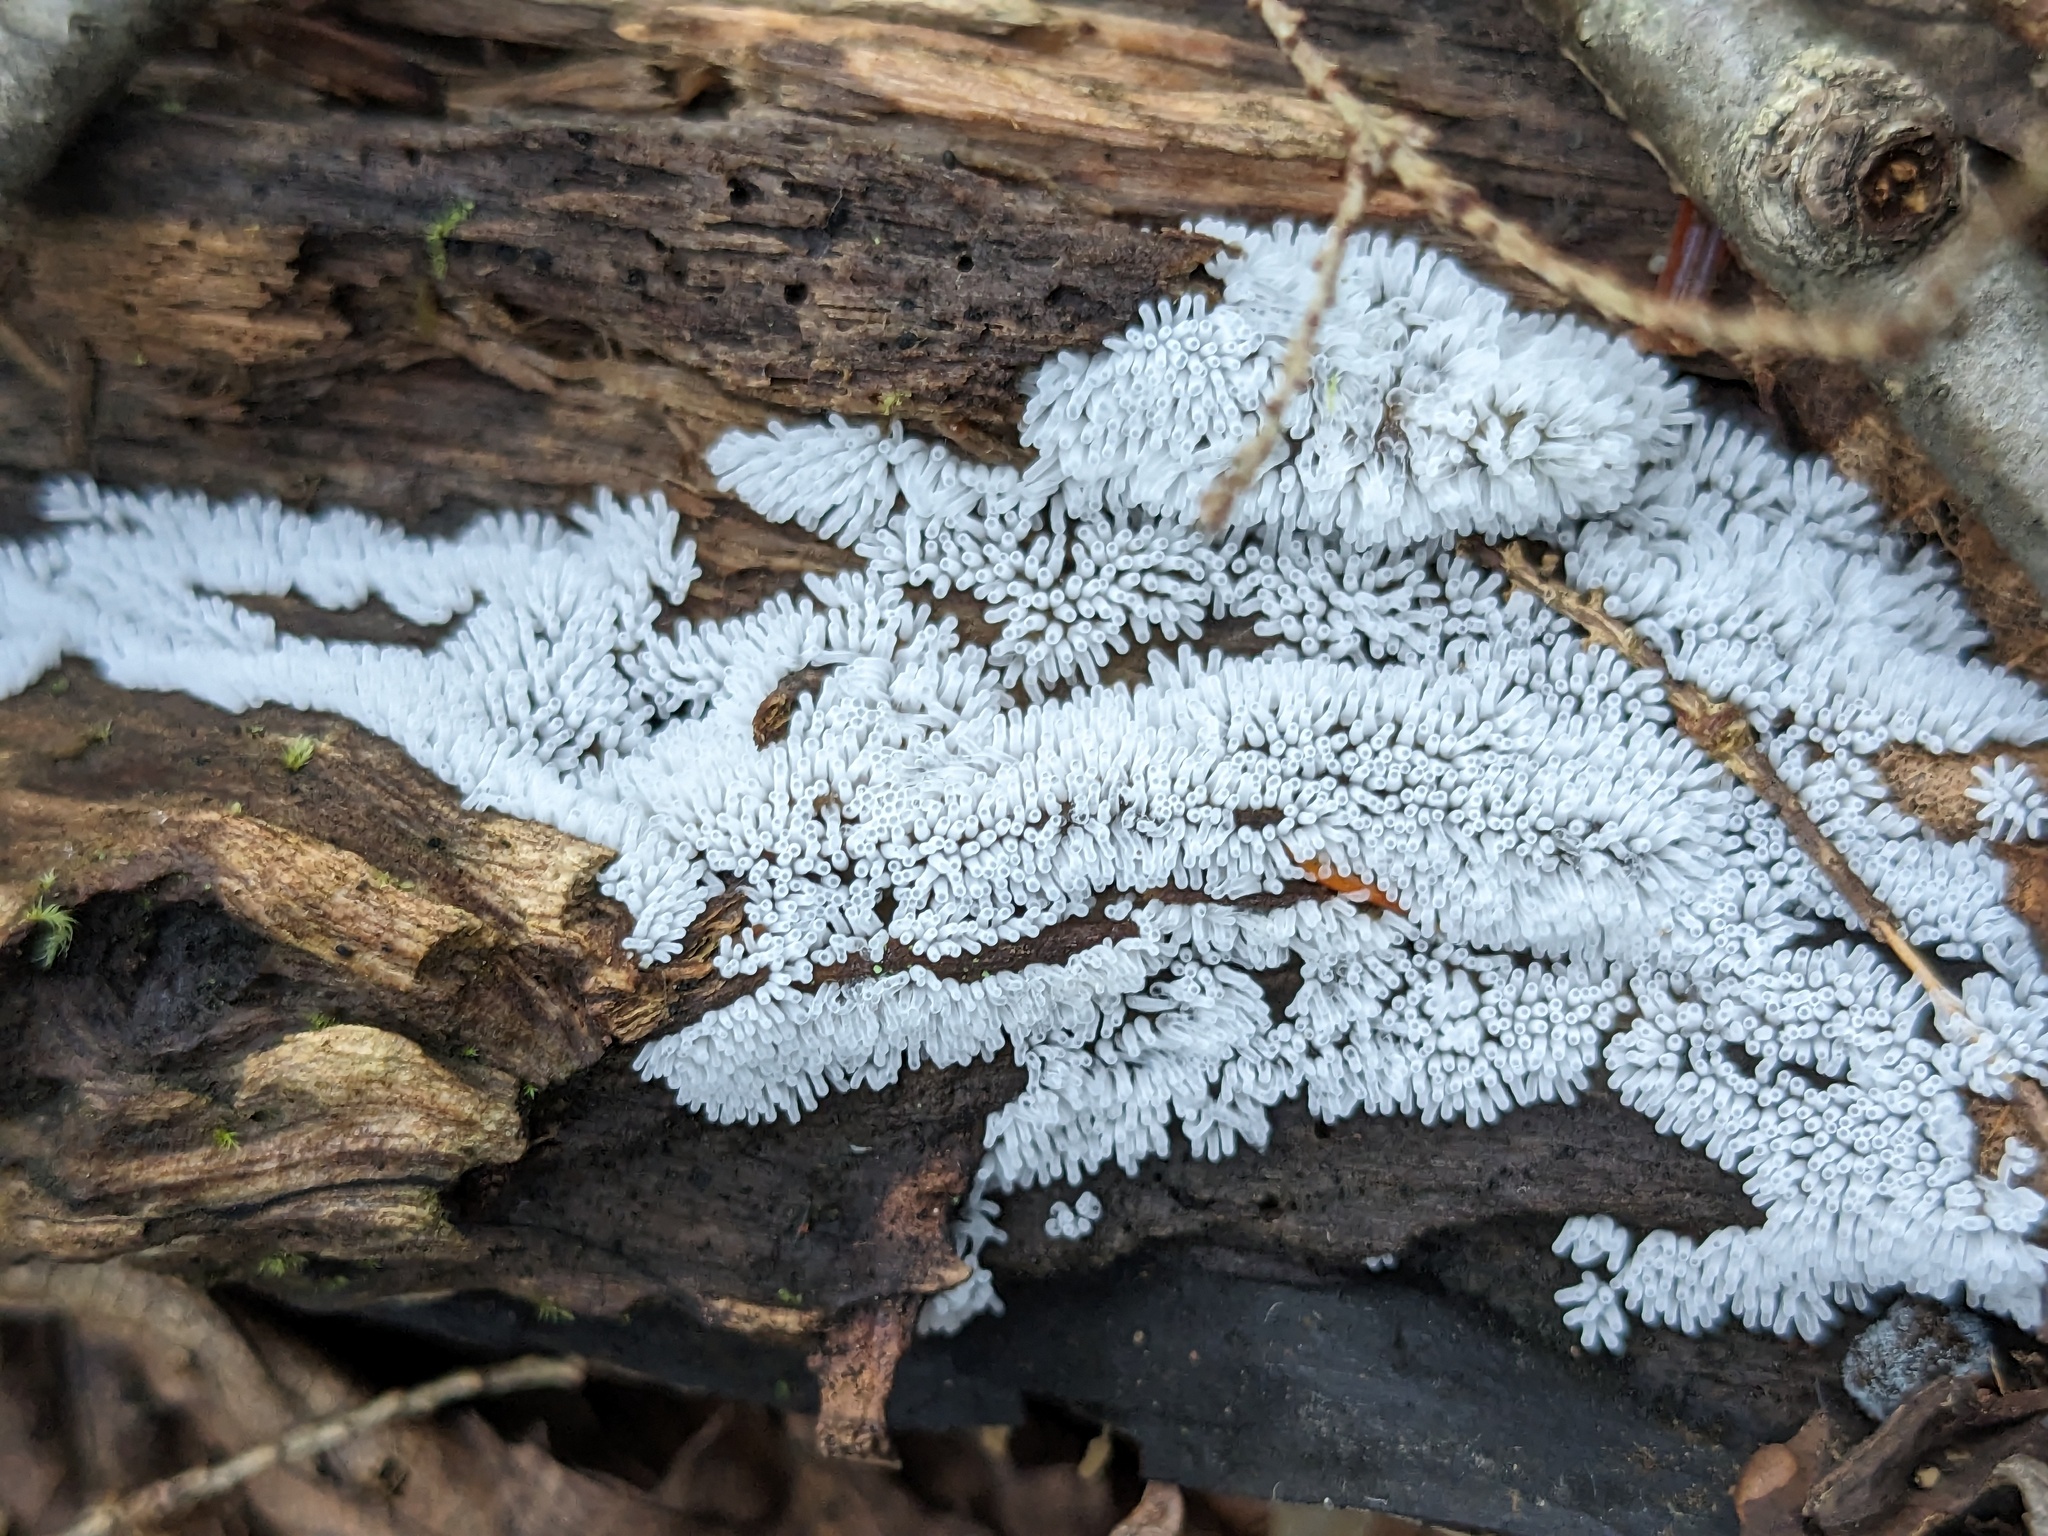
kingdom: Protozoa
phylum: Mycetozoa
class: Protosteliomycetes
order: Ceratiomyxales
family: Ceratiomyxaceae
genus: Ceratiomyxa
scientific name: Ceratiomyxa fruticulosa
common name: Honeycomb coral slime mold
